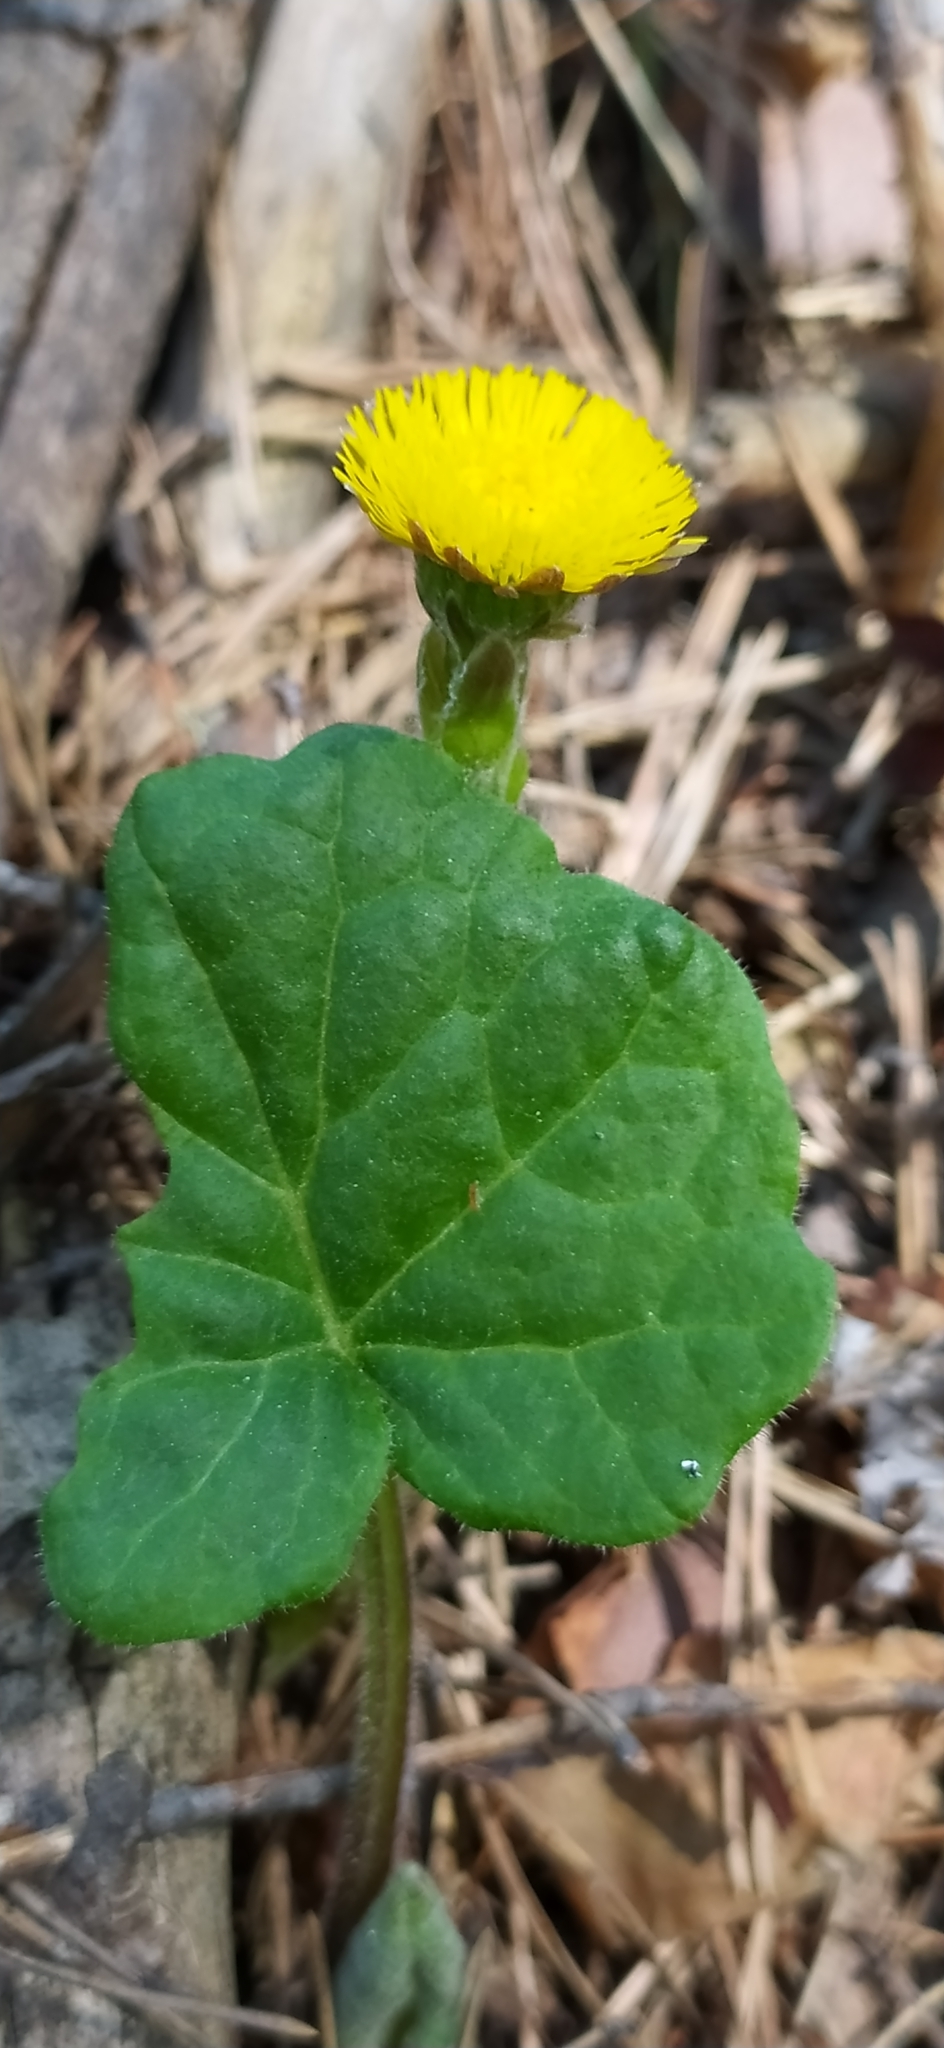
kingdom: Plantae
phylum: Tracheophyta
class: Magnoliopsida
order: Asterales
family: Asteraceae
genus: Tussilago
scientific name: Tussilago farfara
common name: Coltsfoot
